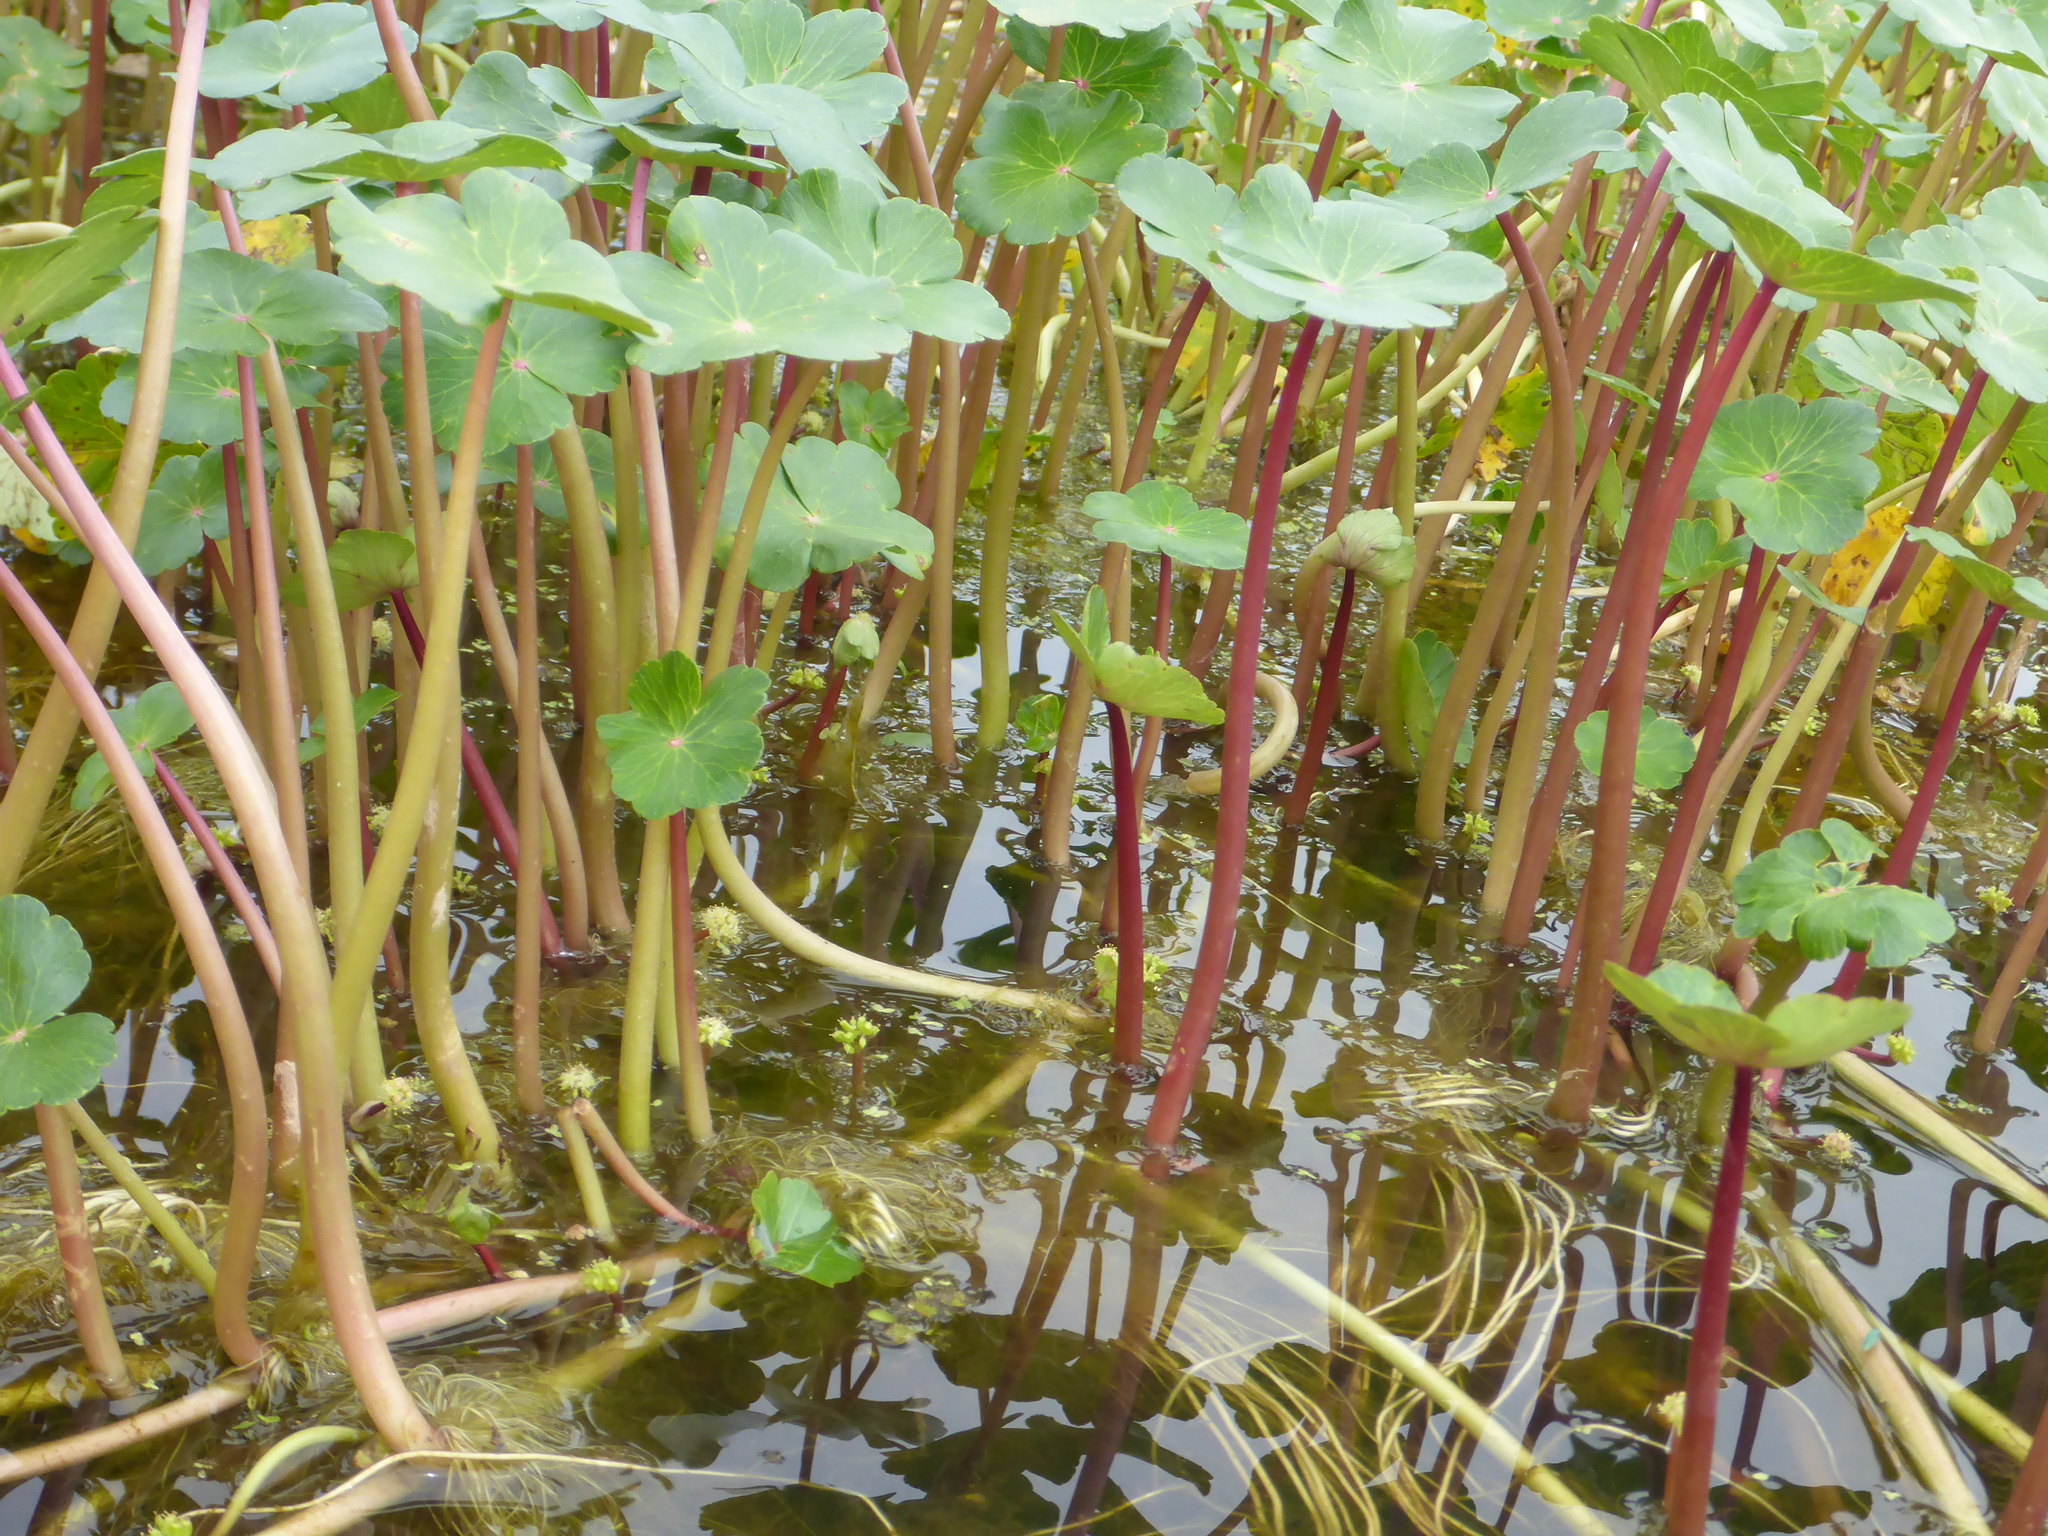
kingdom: Plantae
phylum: Tracheophyta
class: Magnoliopsida
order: Apiales
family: Araliaceae
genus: Hydrocotyle
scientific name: Hydrocotyle ranunculoides
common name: Floating pennywort
